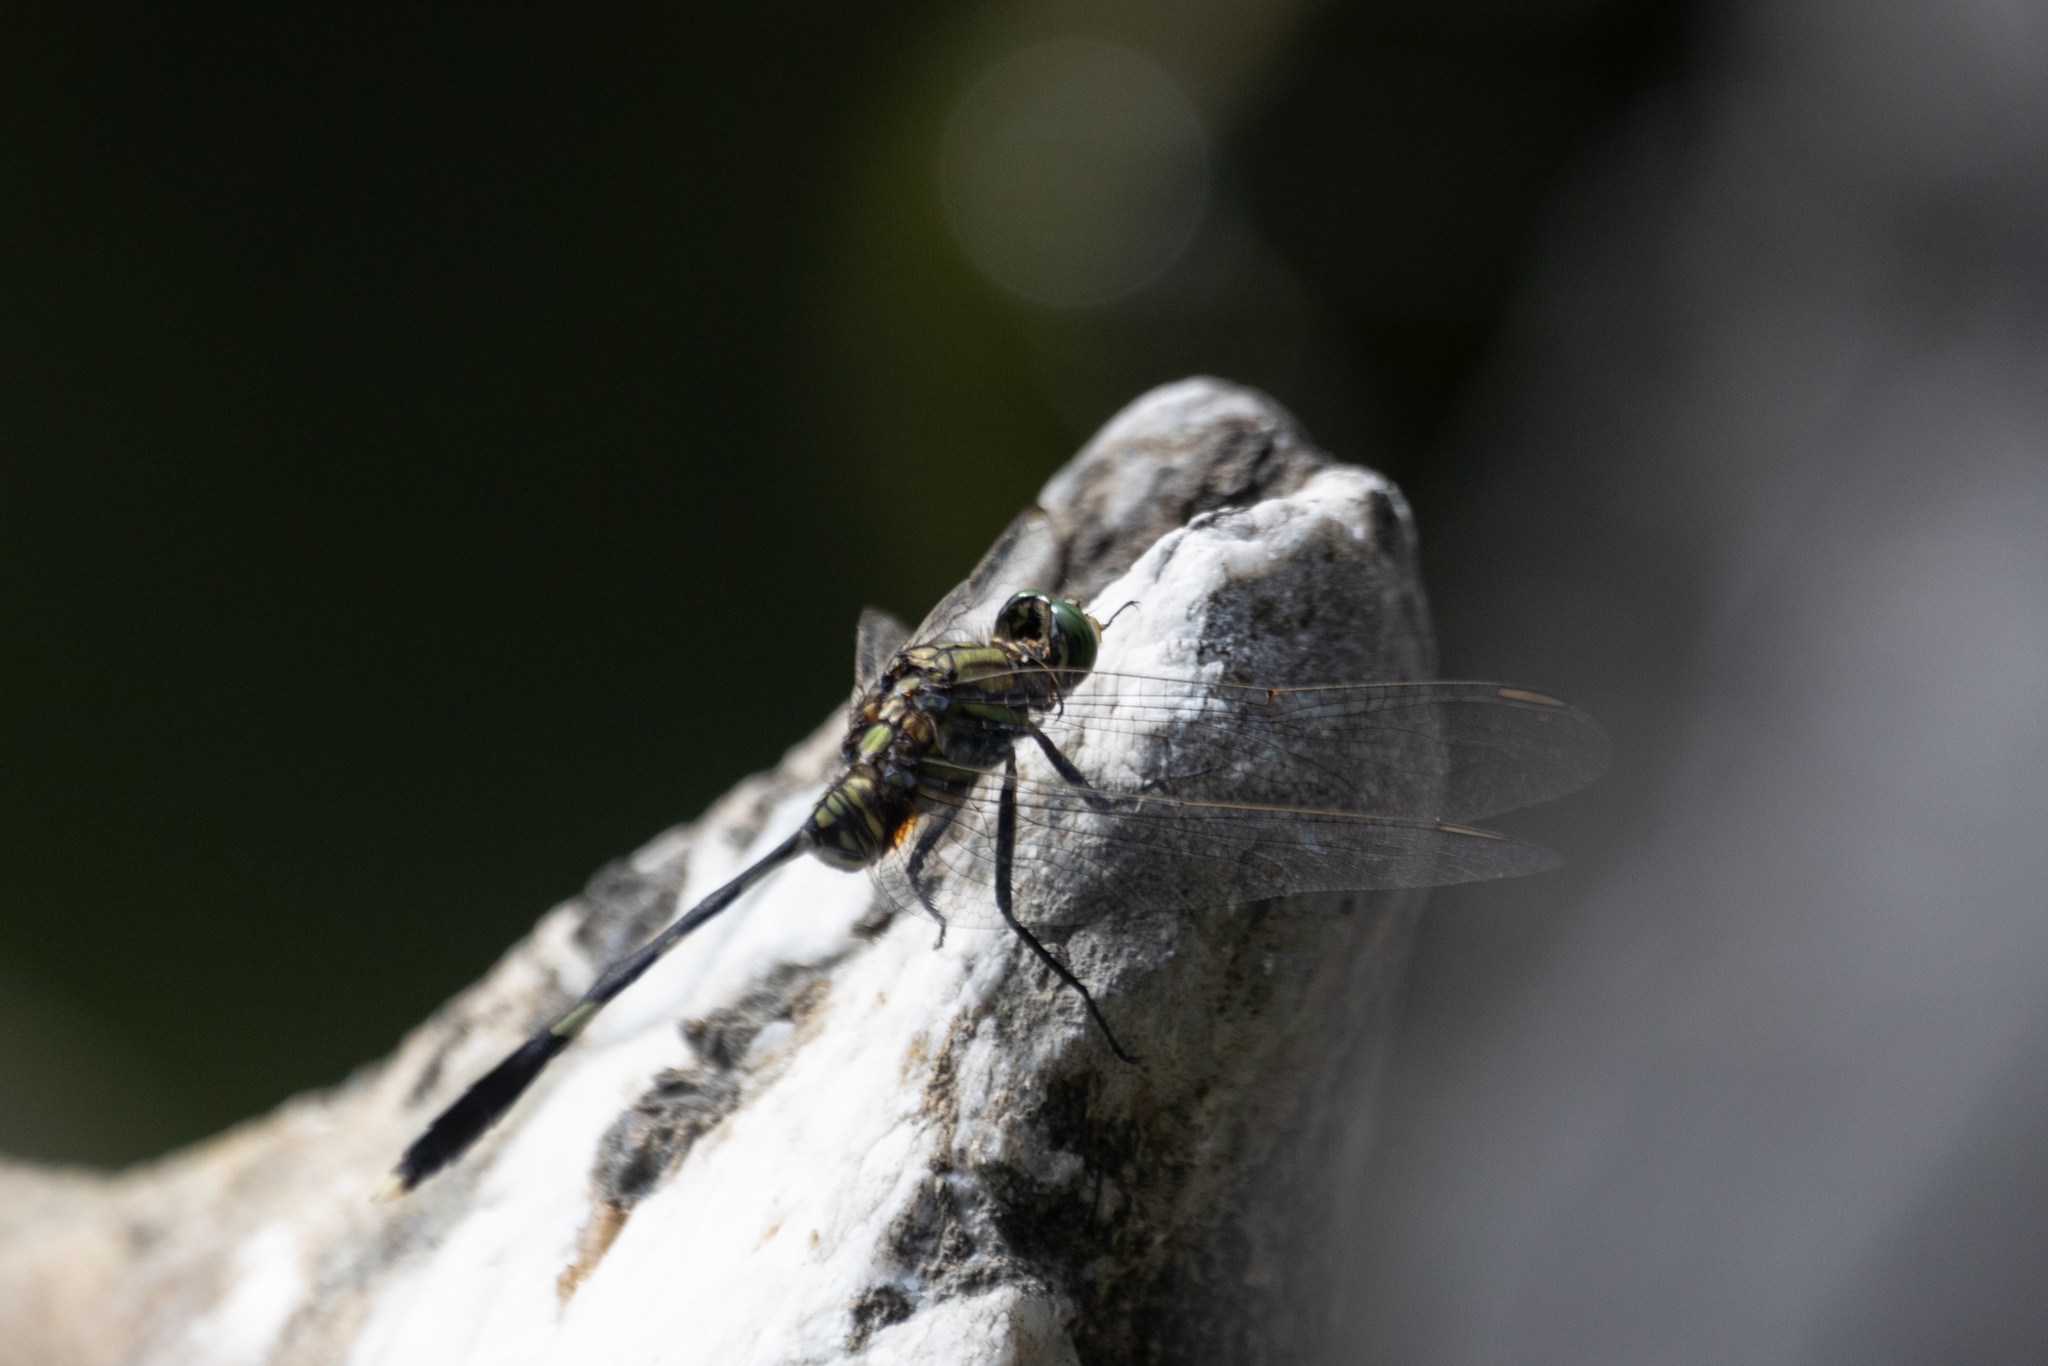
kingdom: Animalia
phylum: Arthropoda
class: Insecta
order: Odonata
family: Libellulidae
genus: Orthetrum
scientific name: Orthetrum sabina
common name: Slender skimmer
